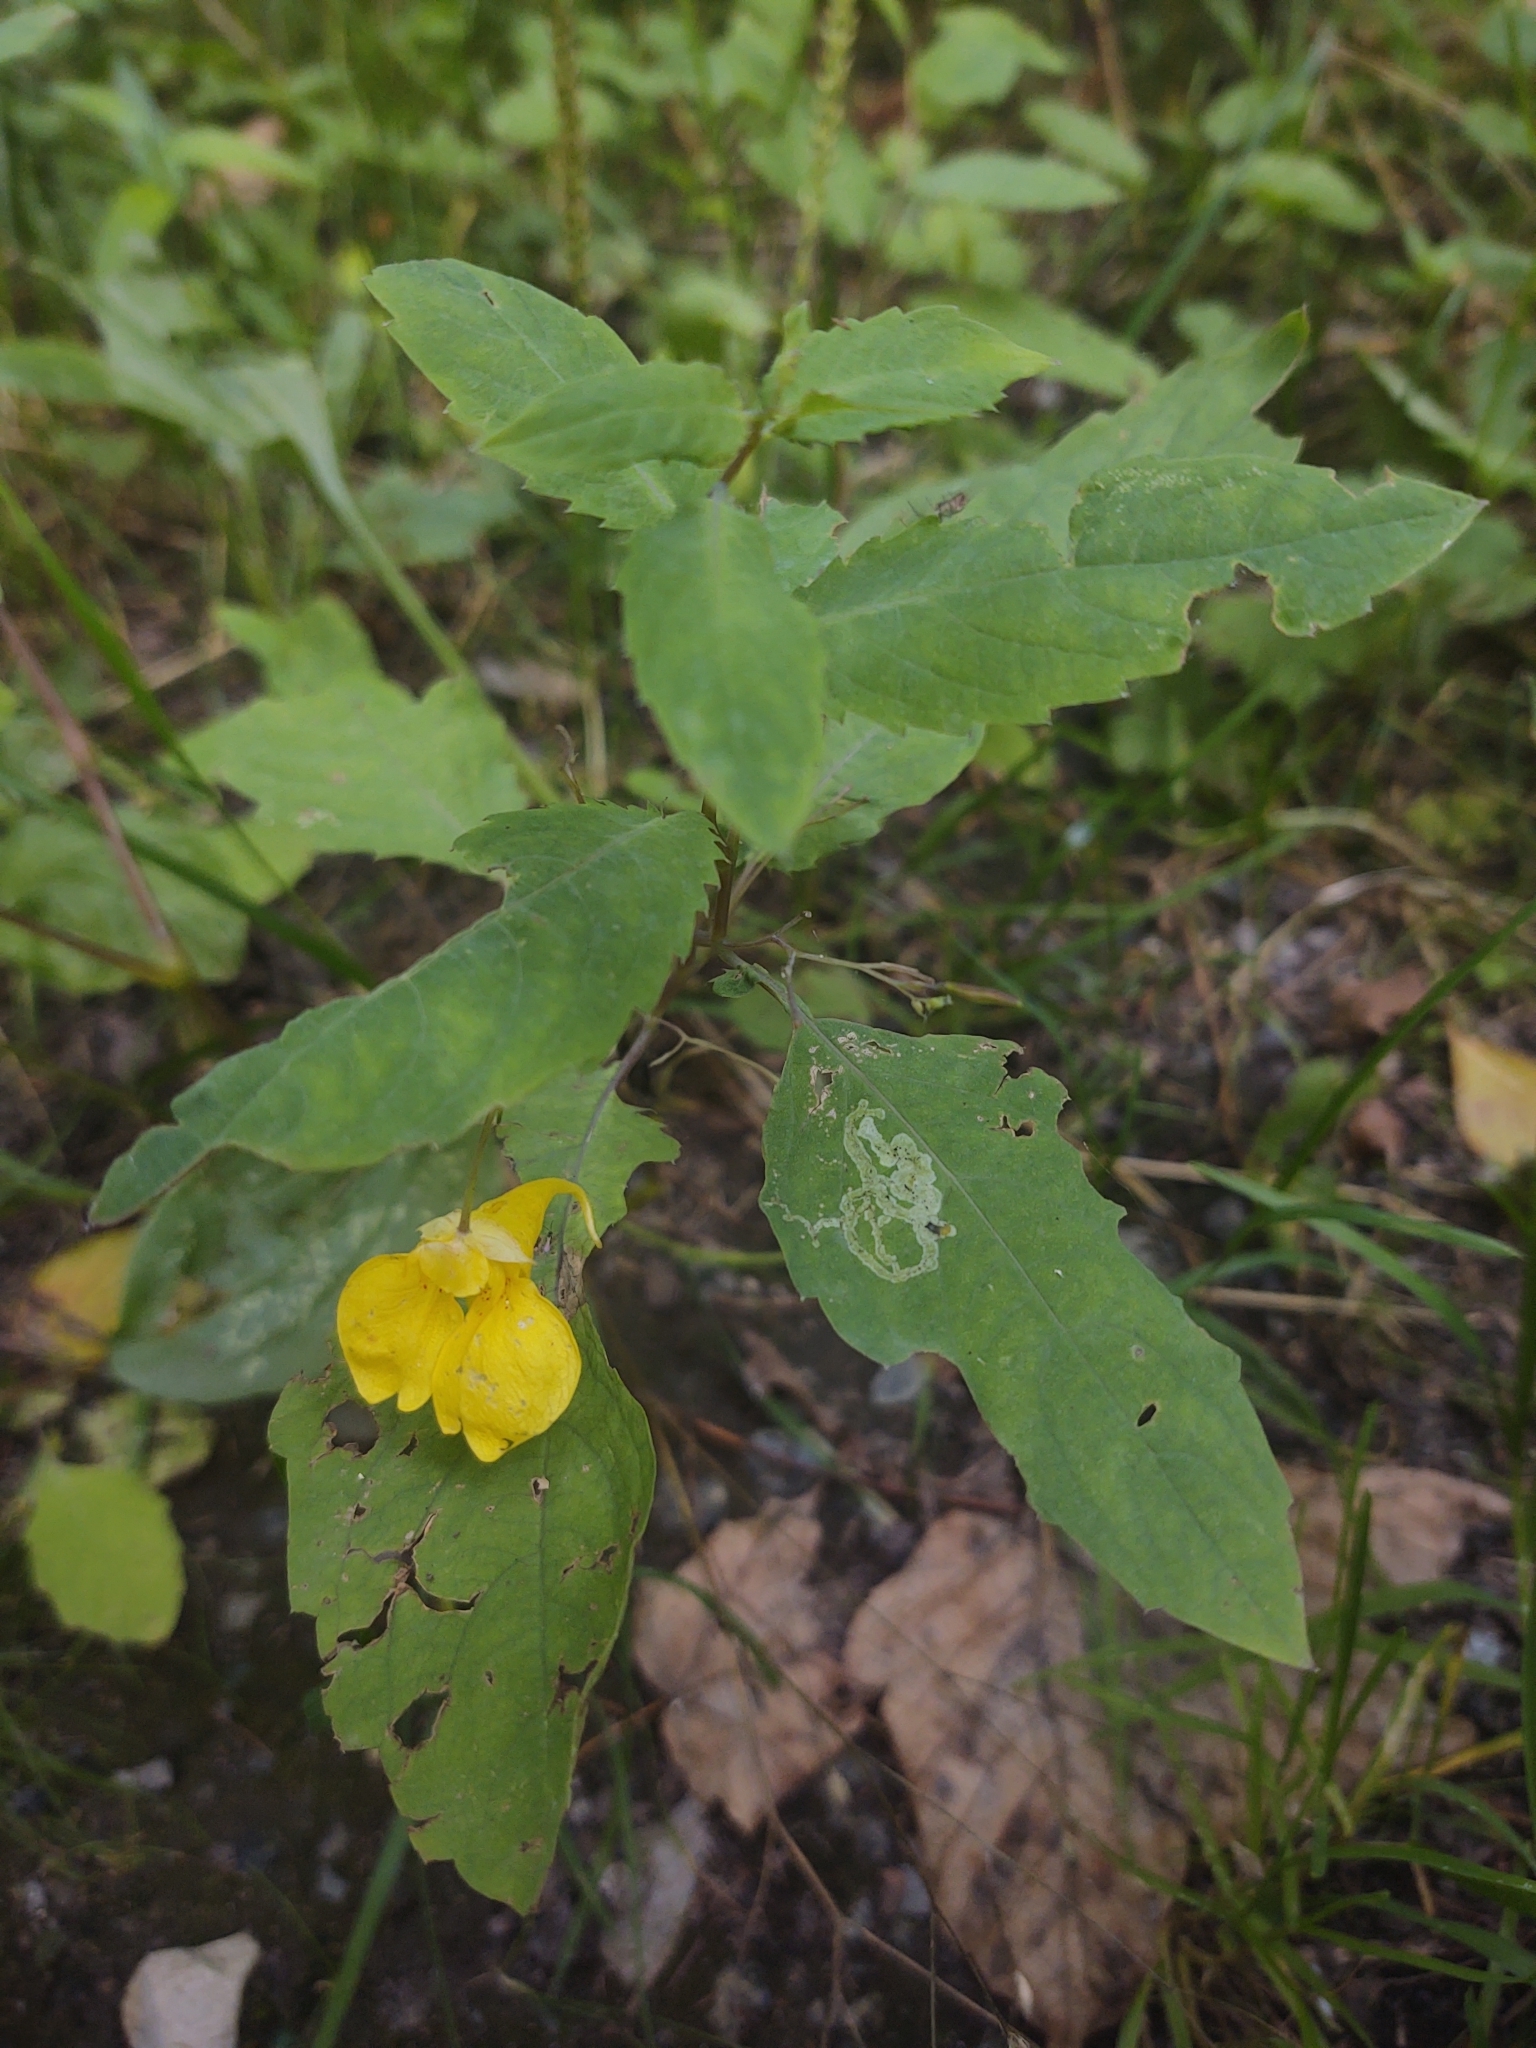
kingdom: Plantae
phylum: Tracheophyta
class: Magnoliopsida
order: Ericales
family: Balsaminaceae
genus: Impatiens
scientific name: Impatiens noli-tangere
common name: Touch-me-not balsam
